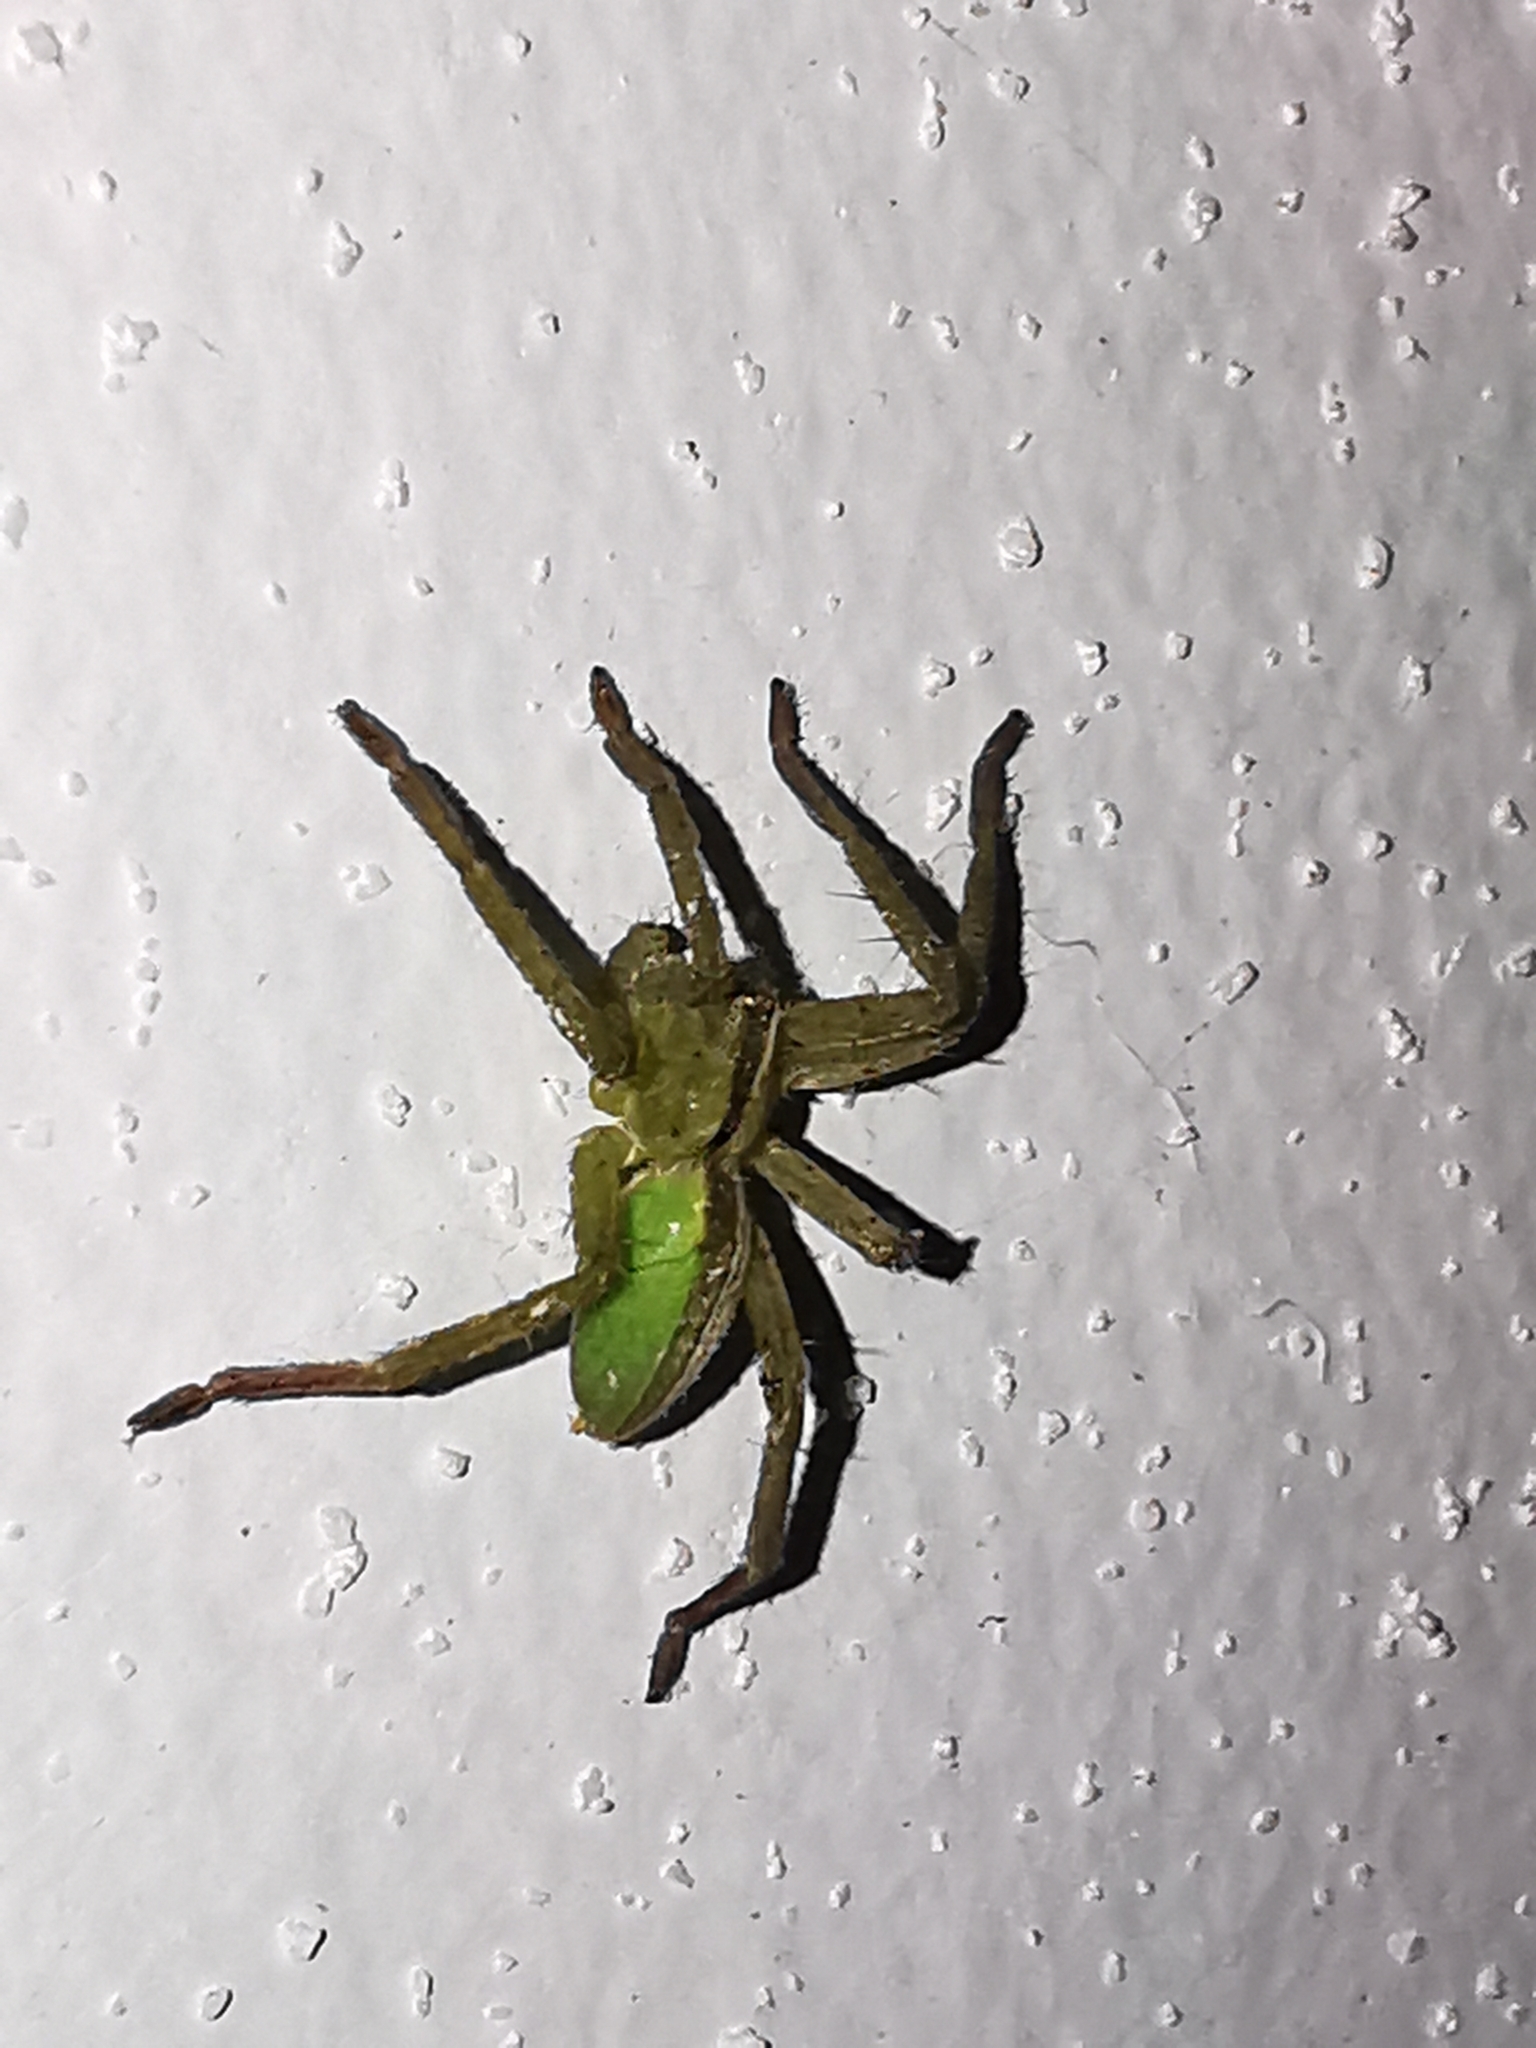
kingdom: Animalia
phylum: Arthropoda
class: Arachnida
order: Araneae
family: Sparassidae
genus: Micrommata
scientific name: Micrommata ligurina
